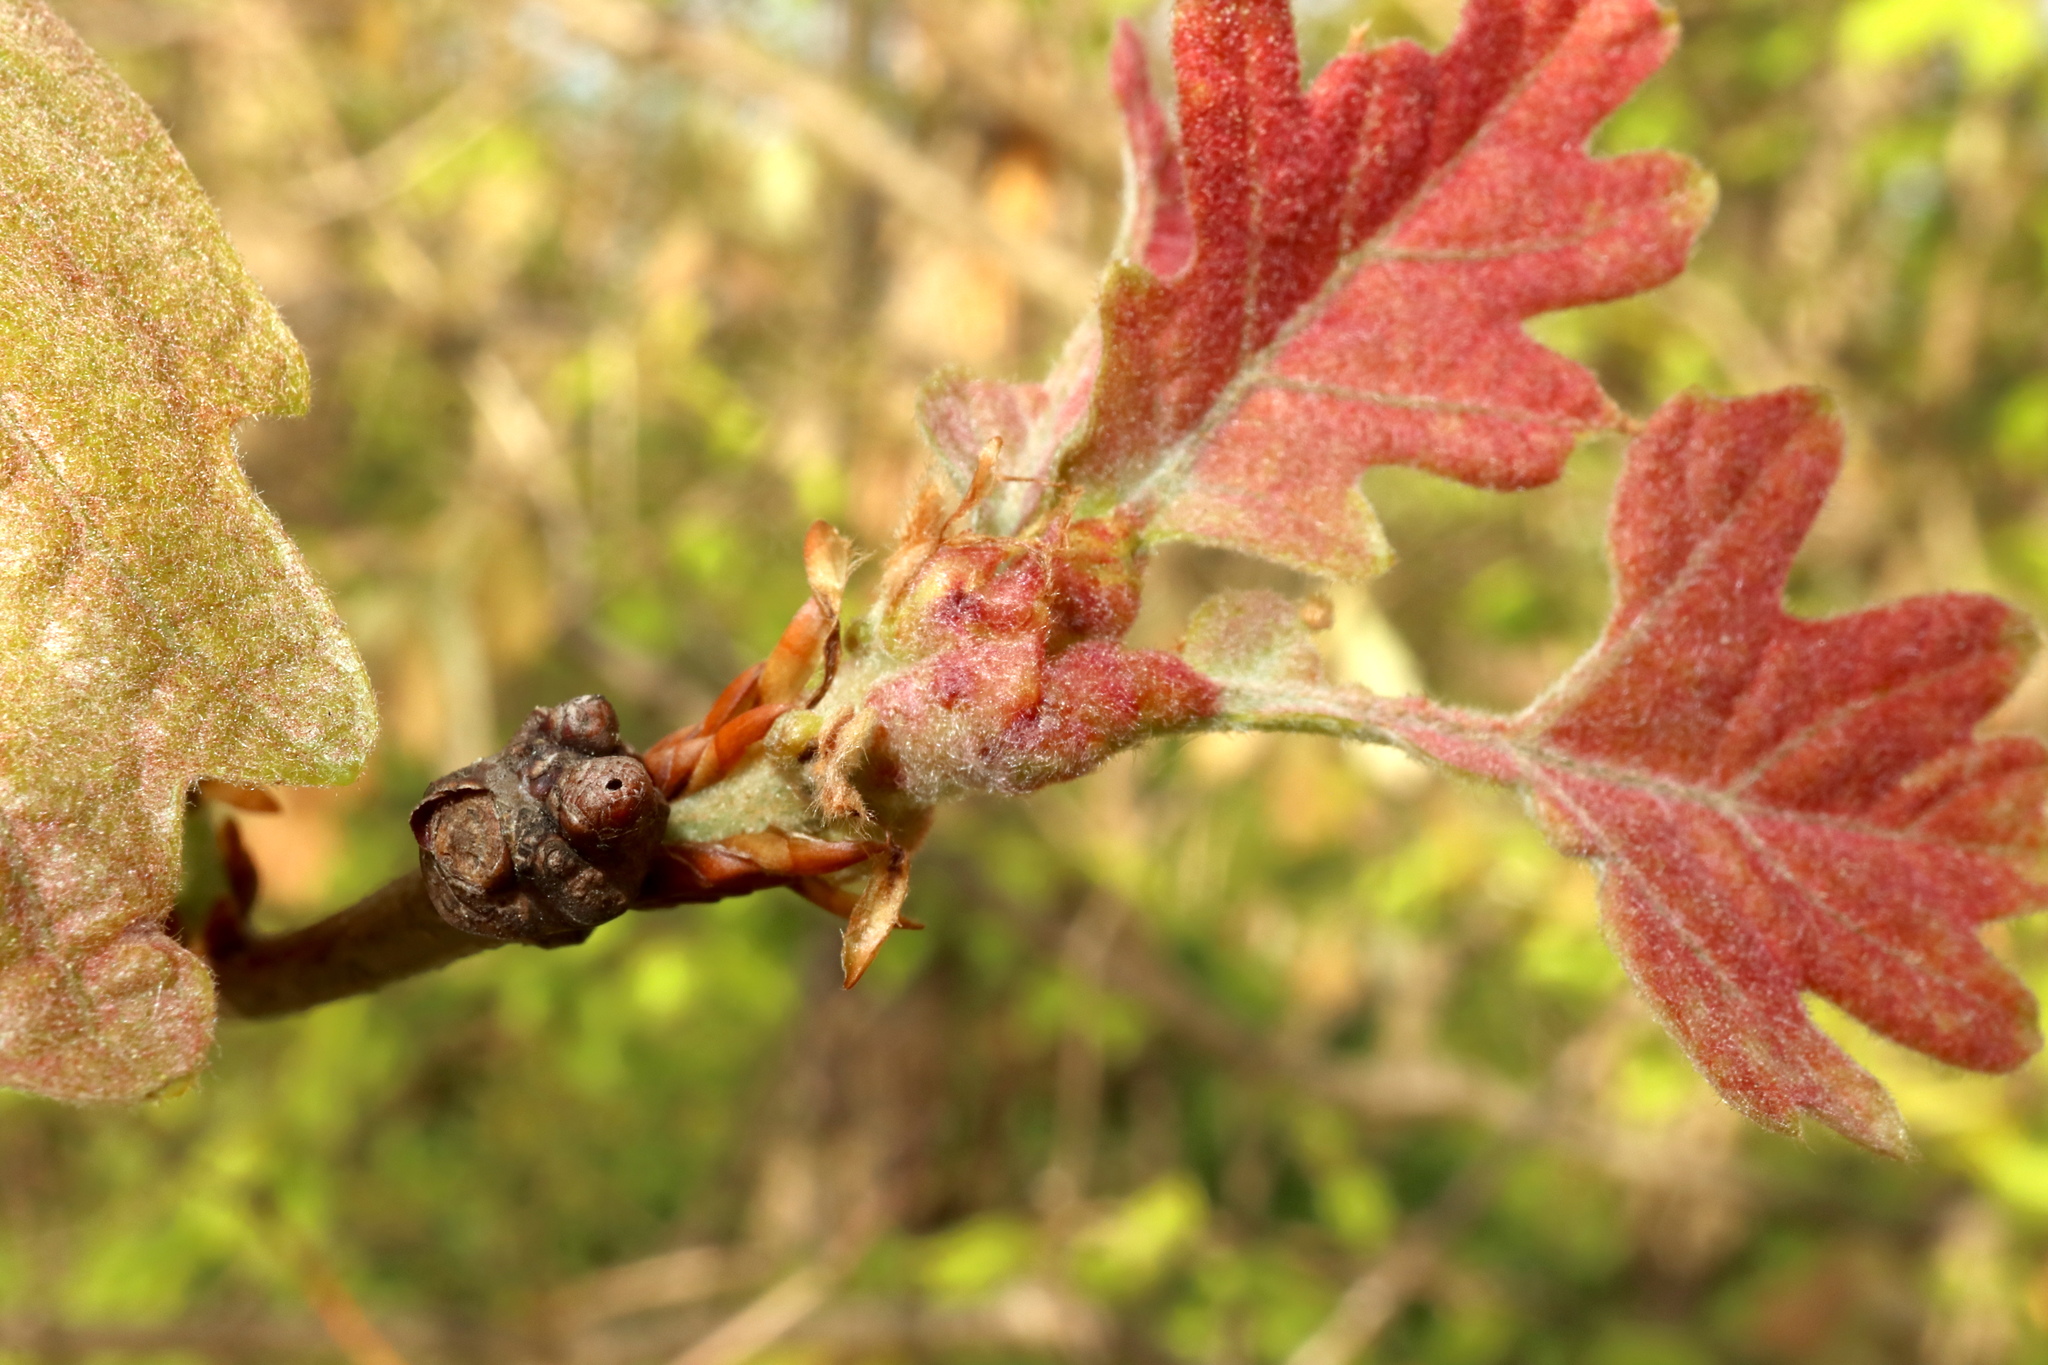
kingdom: Animalia
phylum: Arthropoda
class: Insecta
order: Hymenoptera
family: Cynipidae
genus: Neuroterus
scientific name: Neuroterus minutulus
